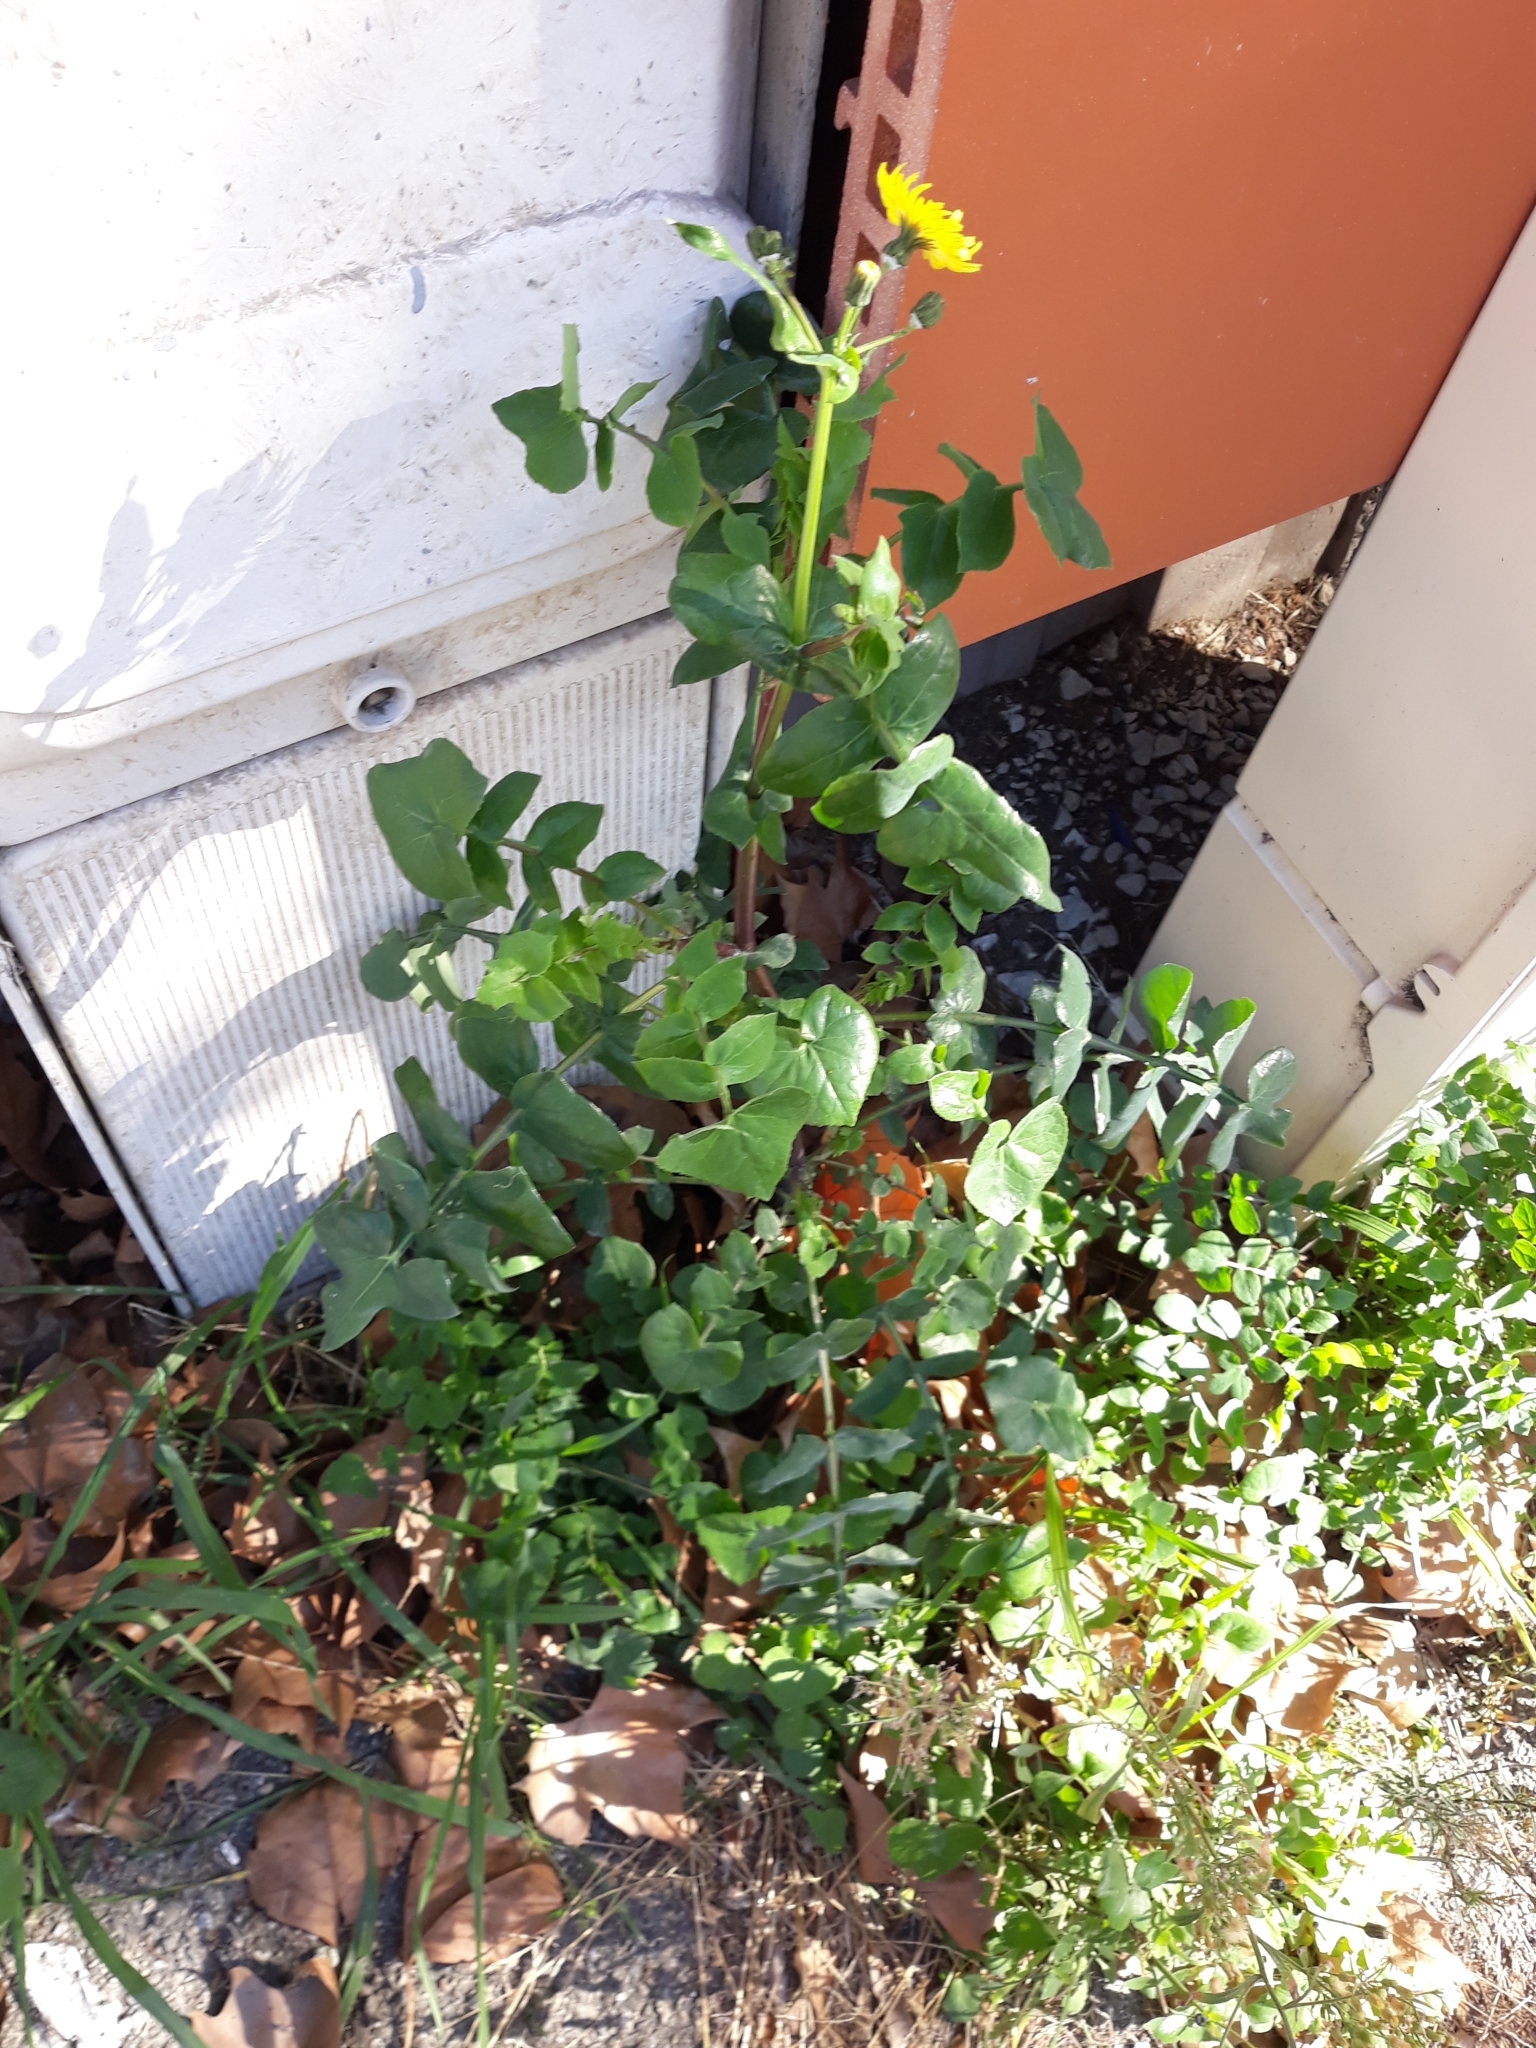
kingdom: Plantae
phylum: Tracheophyta
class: Magnoliopsida
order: Asterales
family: Asteraceae
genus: Sonchus
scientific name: Sonchus tenerrimus
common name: Clammy sowthistle
